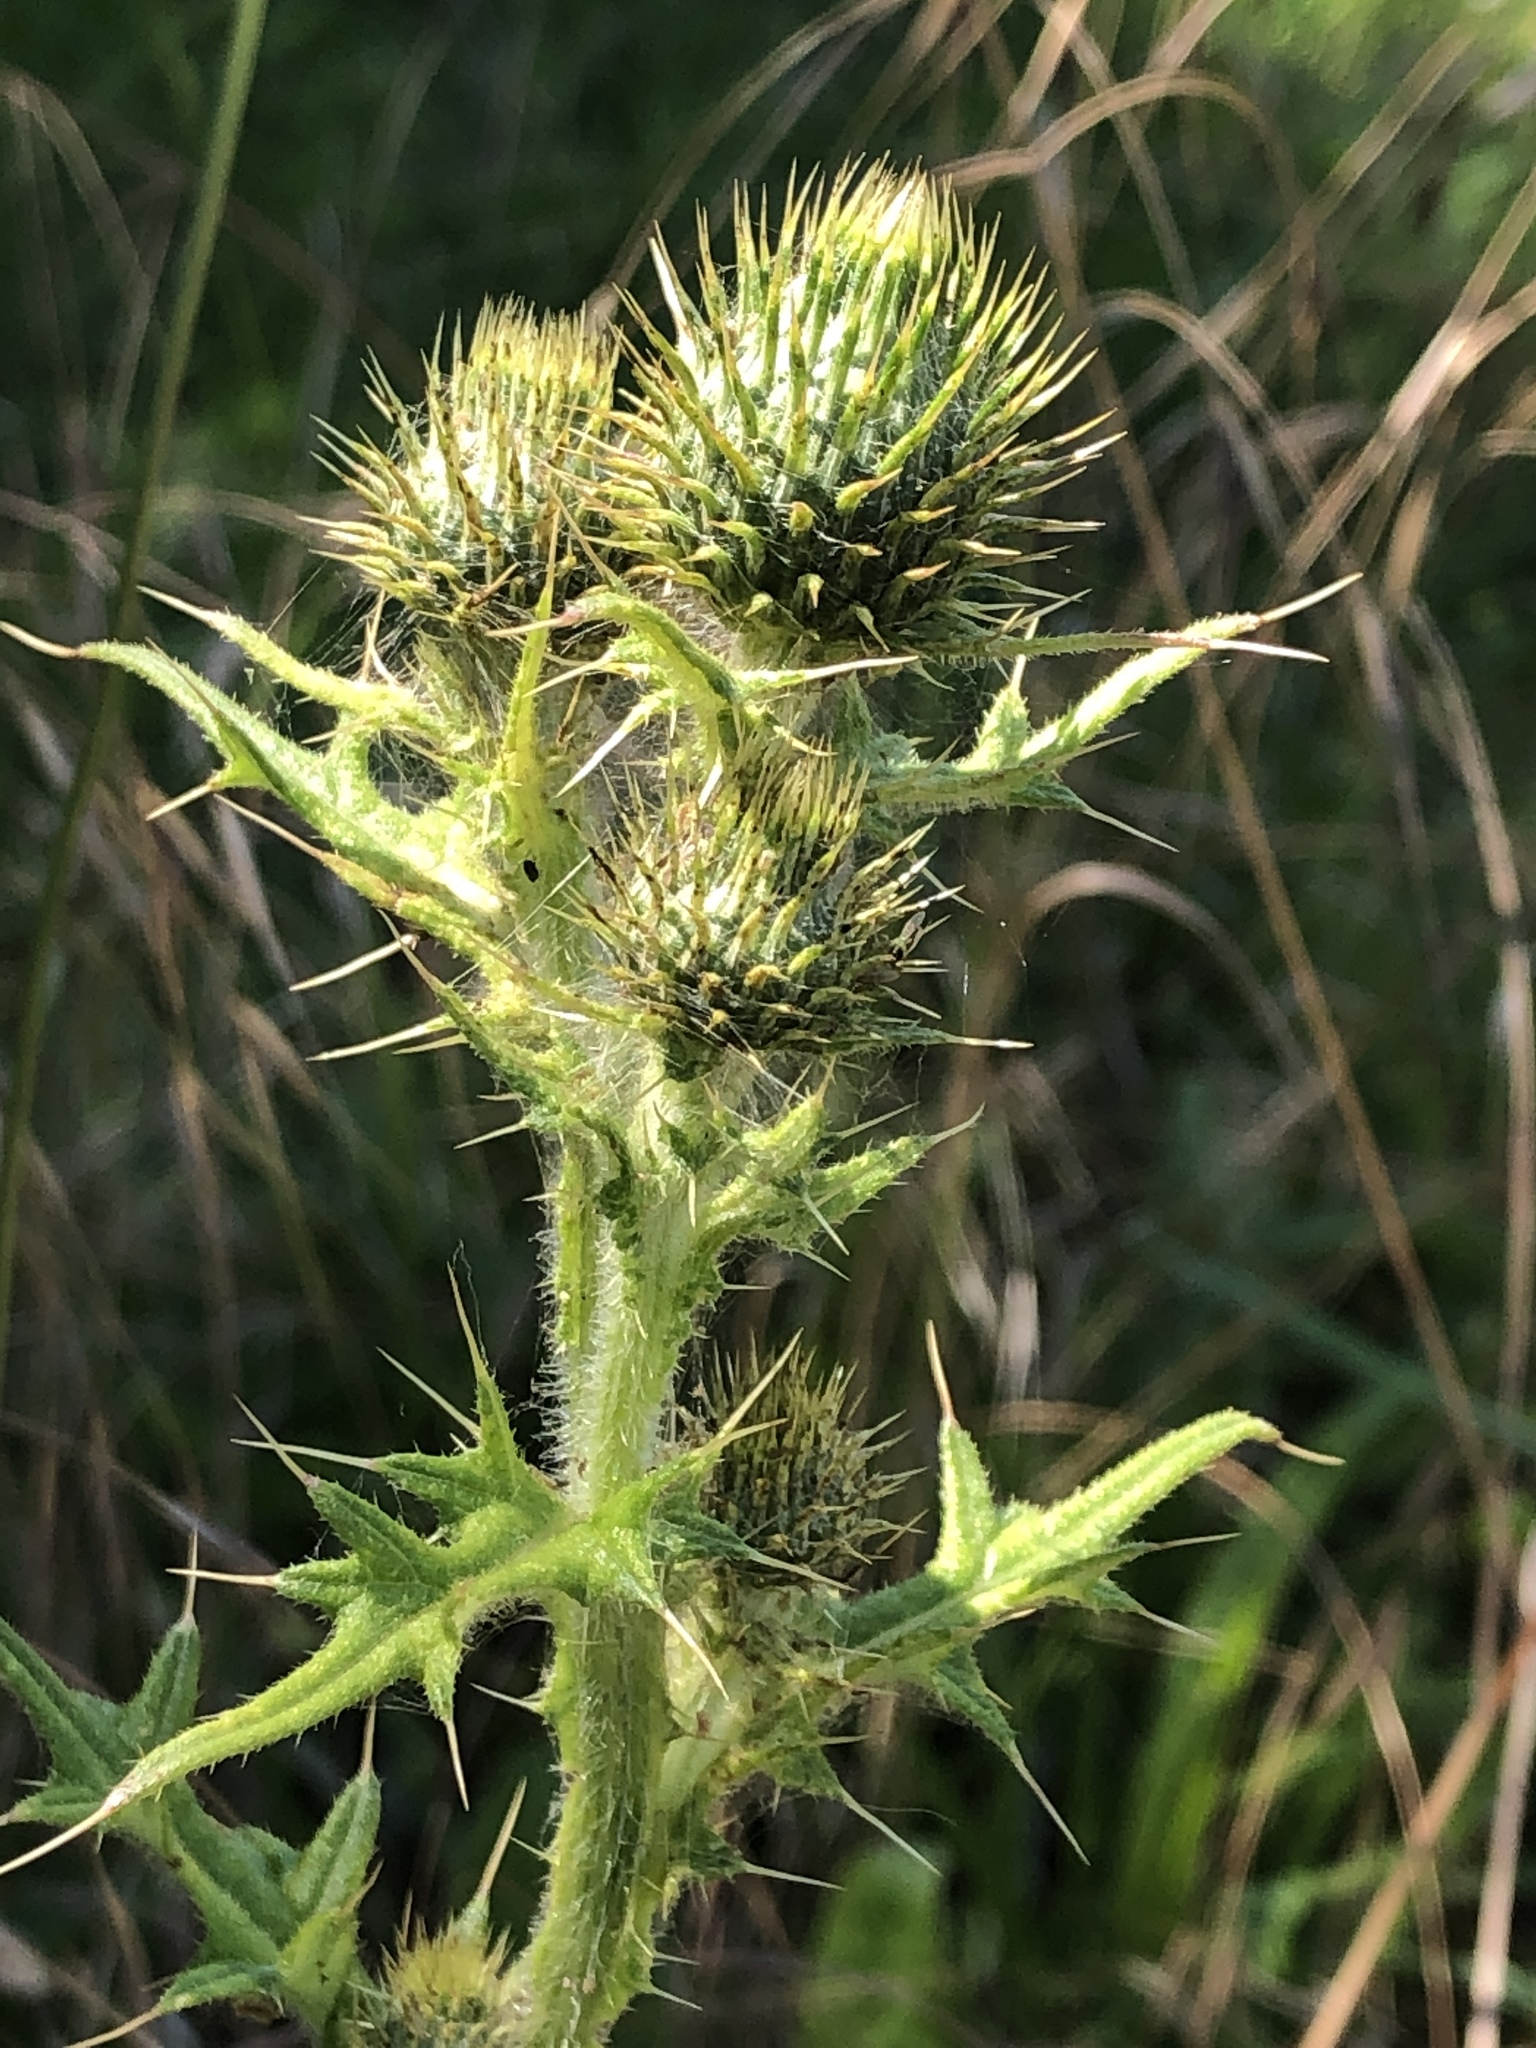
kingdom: Plantae
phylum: Tracheophyta
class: Magnoliopsida
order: Asterales
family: Asteraceae
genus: Cirsium
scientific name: Cirsium vulgare
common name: Bull thistle
